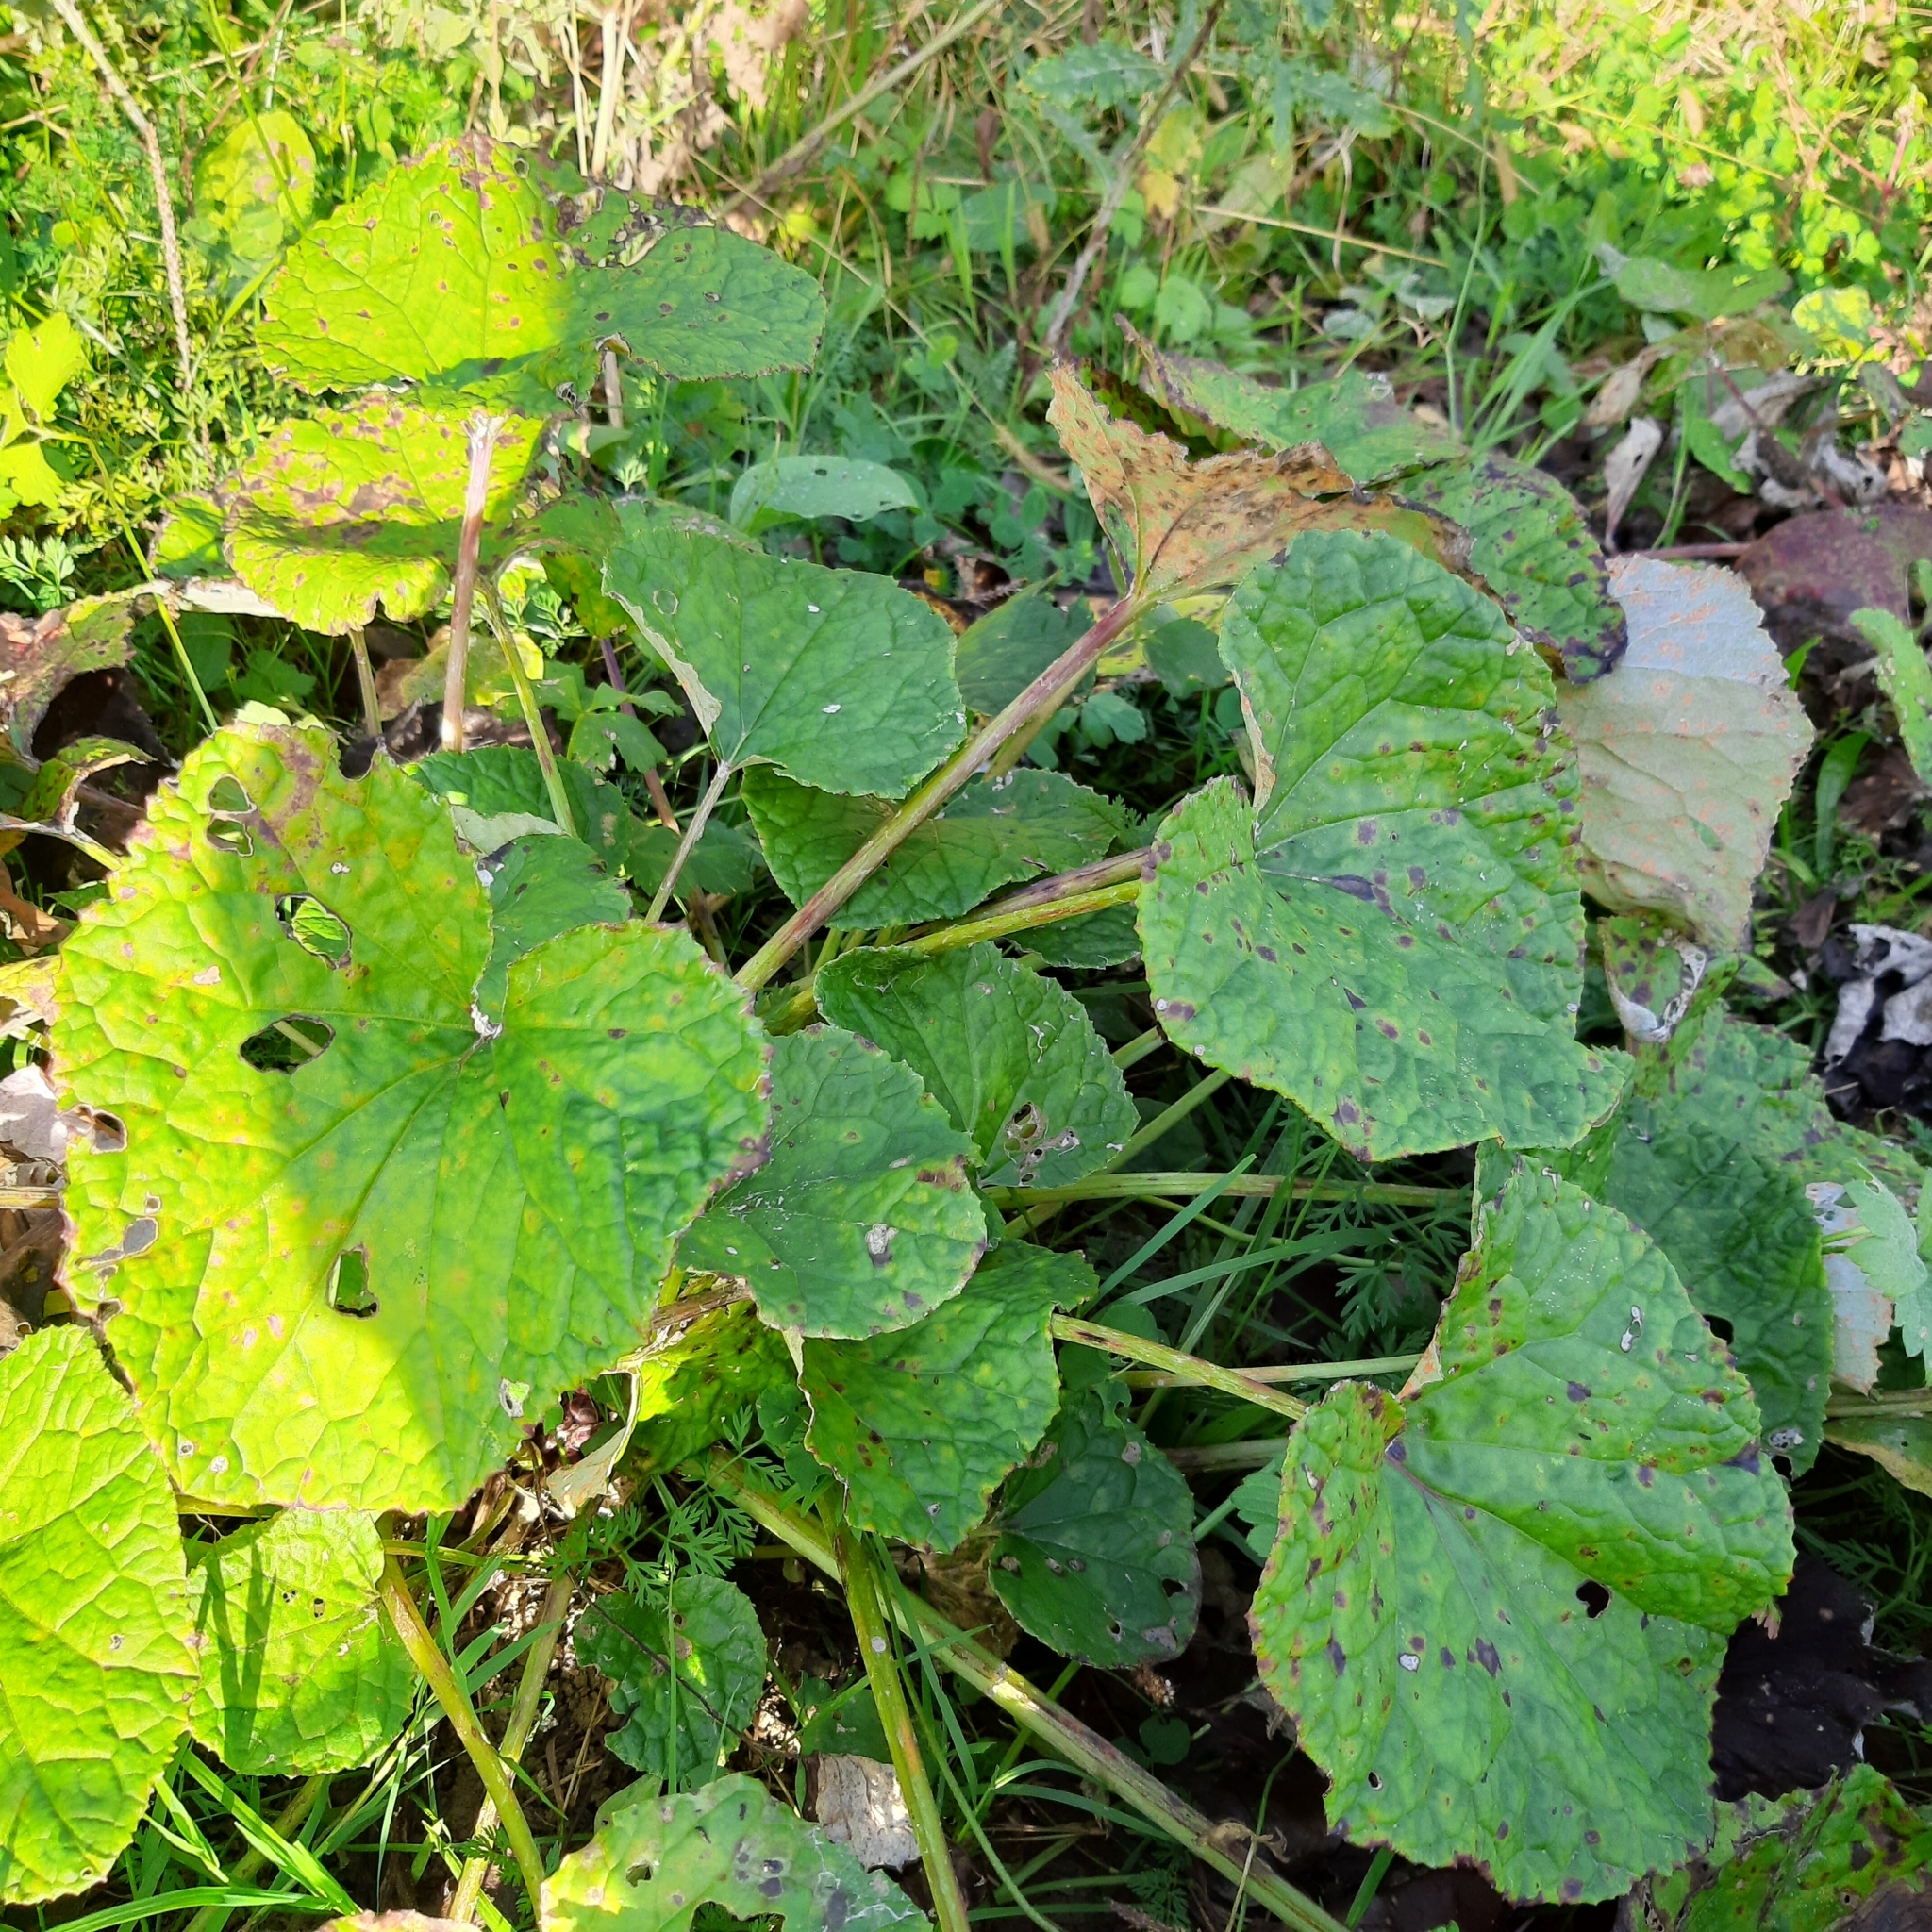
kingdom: Plantae
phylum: Tracheophyta
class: Magnoliopsida
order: Asterales
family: Asteraceae
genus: Tussilago
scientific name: Tussilago farfara
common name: Coltsfoot
